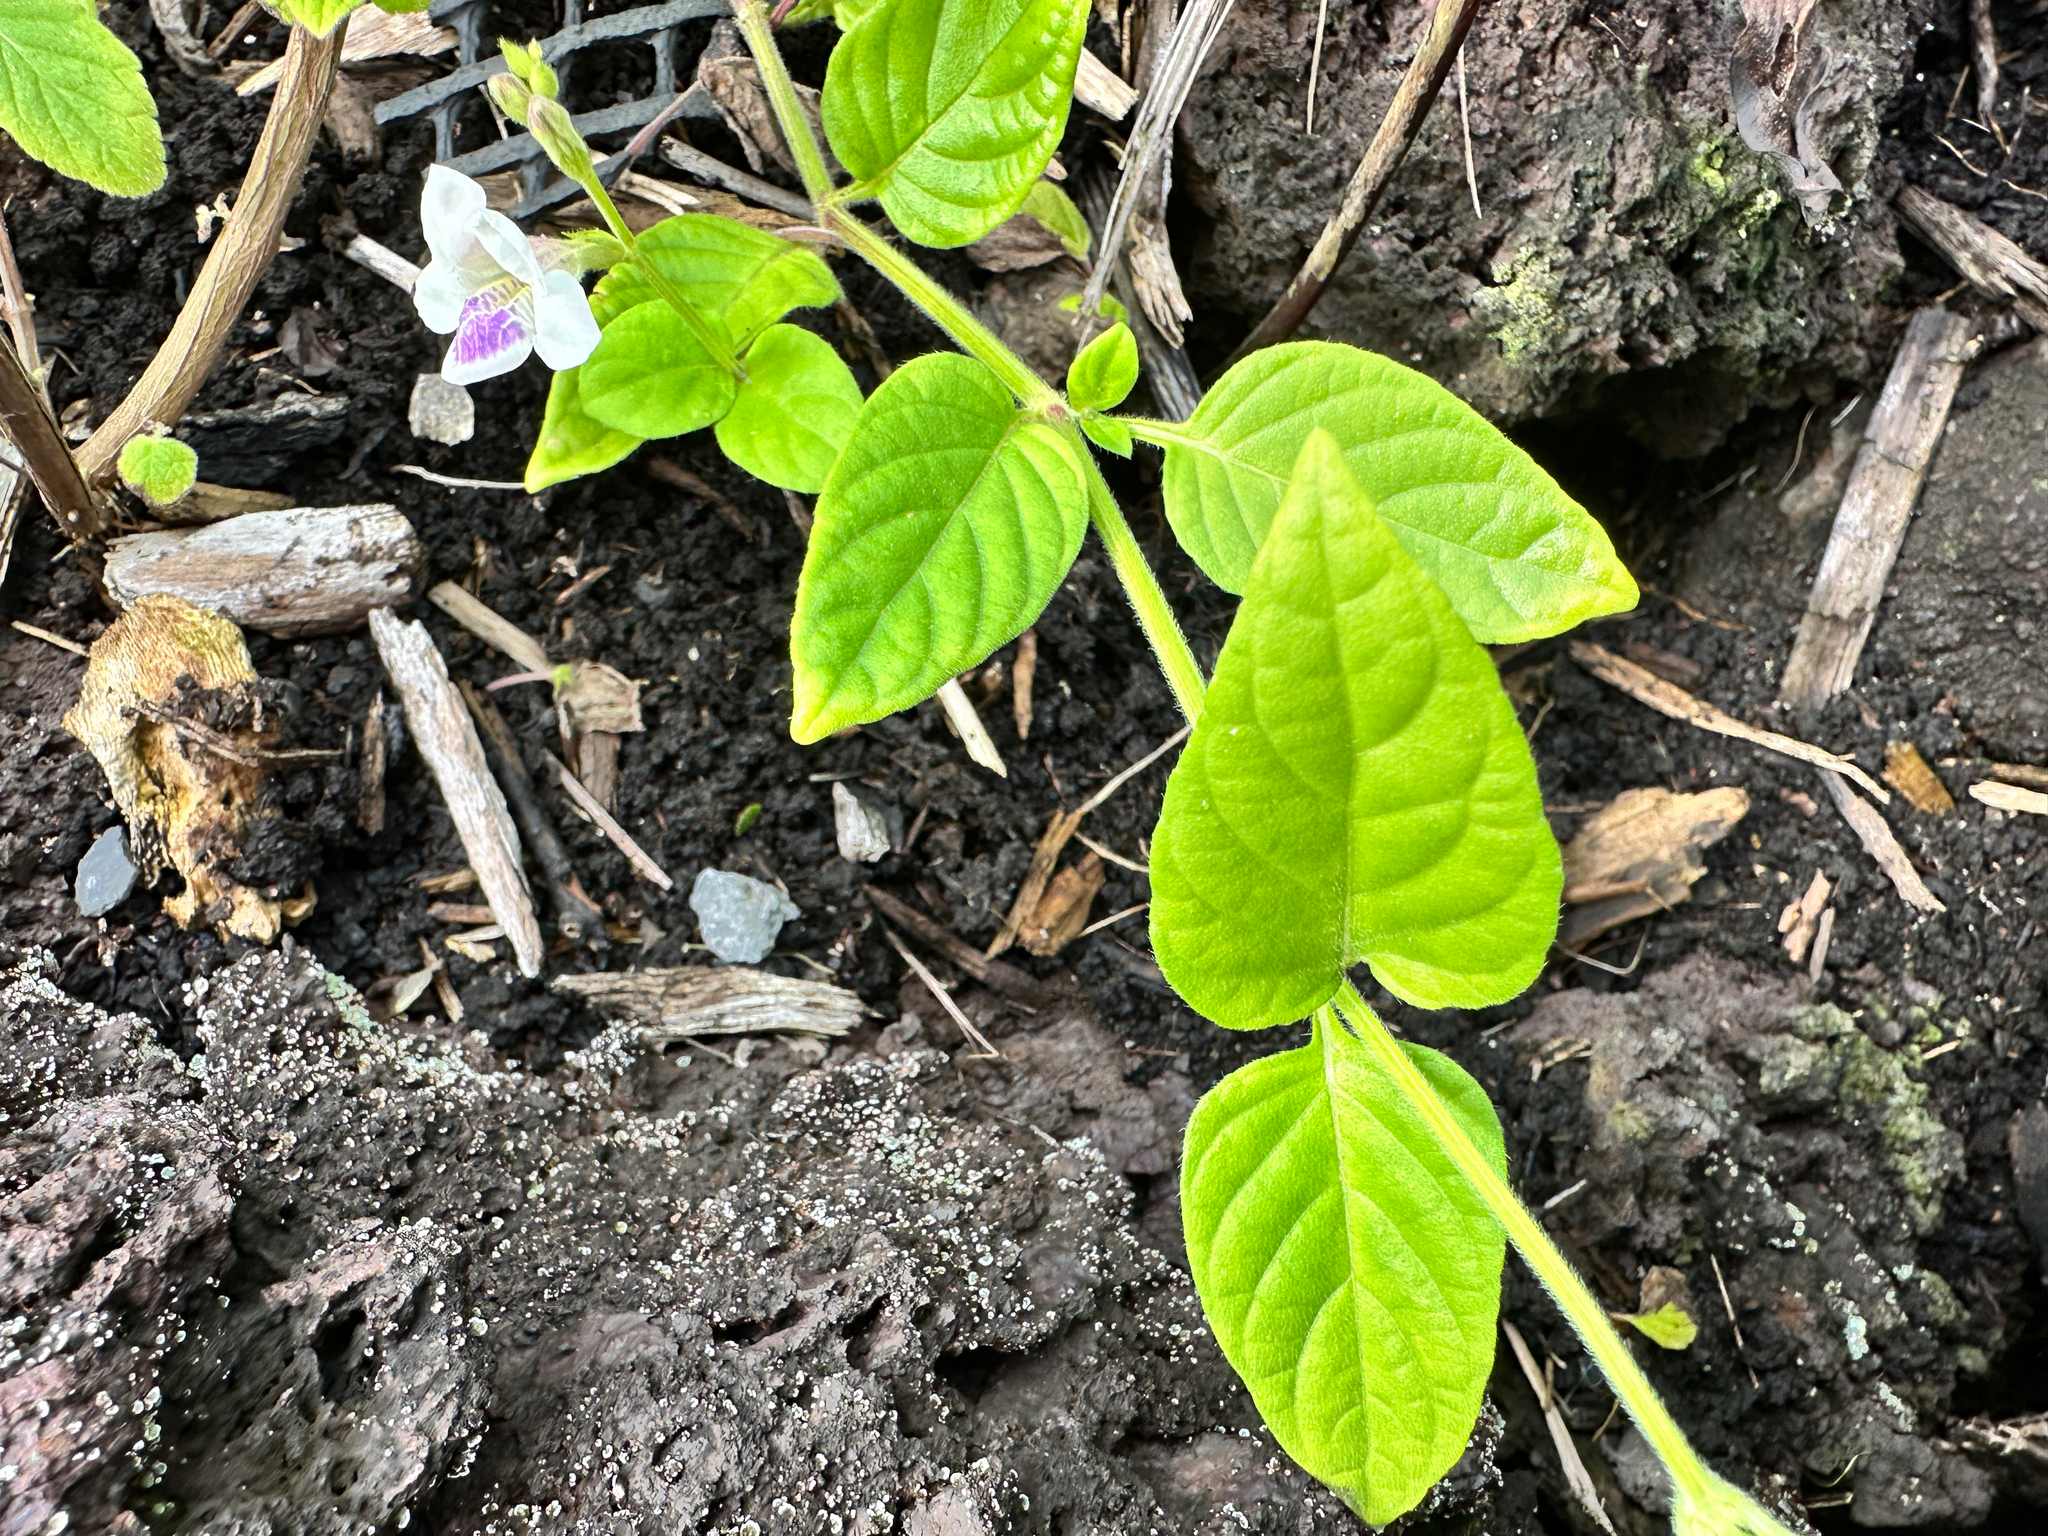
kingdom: Plantae
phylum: Tracheophyta
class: Magnoliopsida
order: Lamiales
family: Acanthaceae
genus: Asystasia
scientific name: Asystasia intrusa
